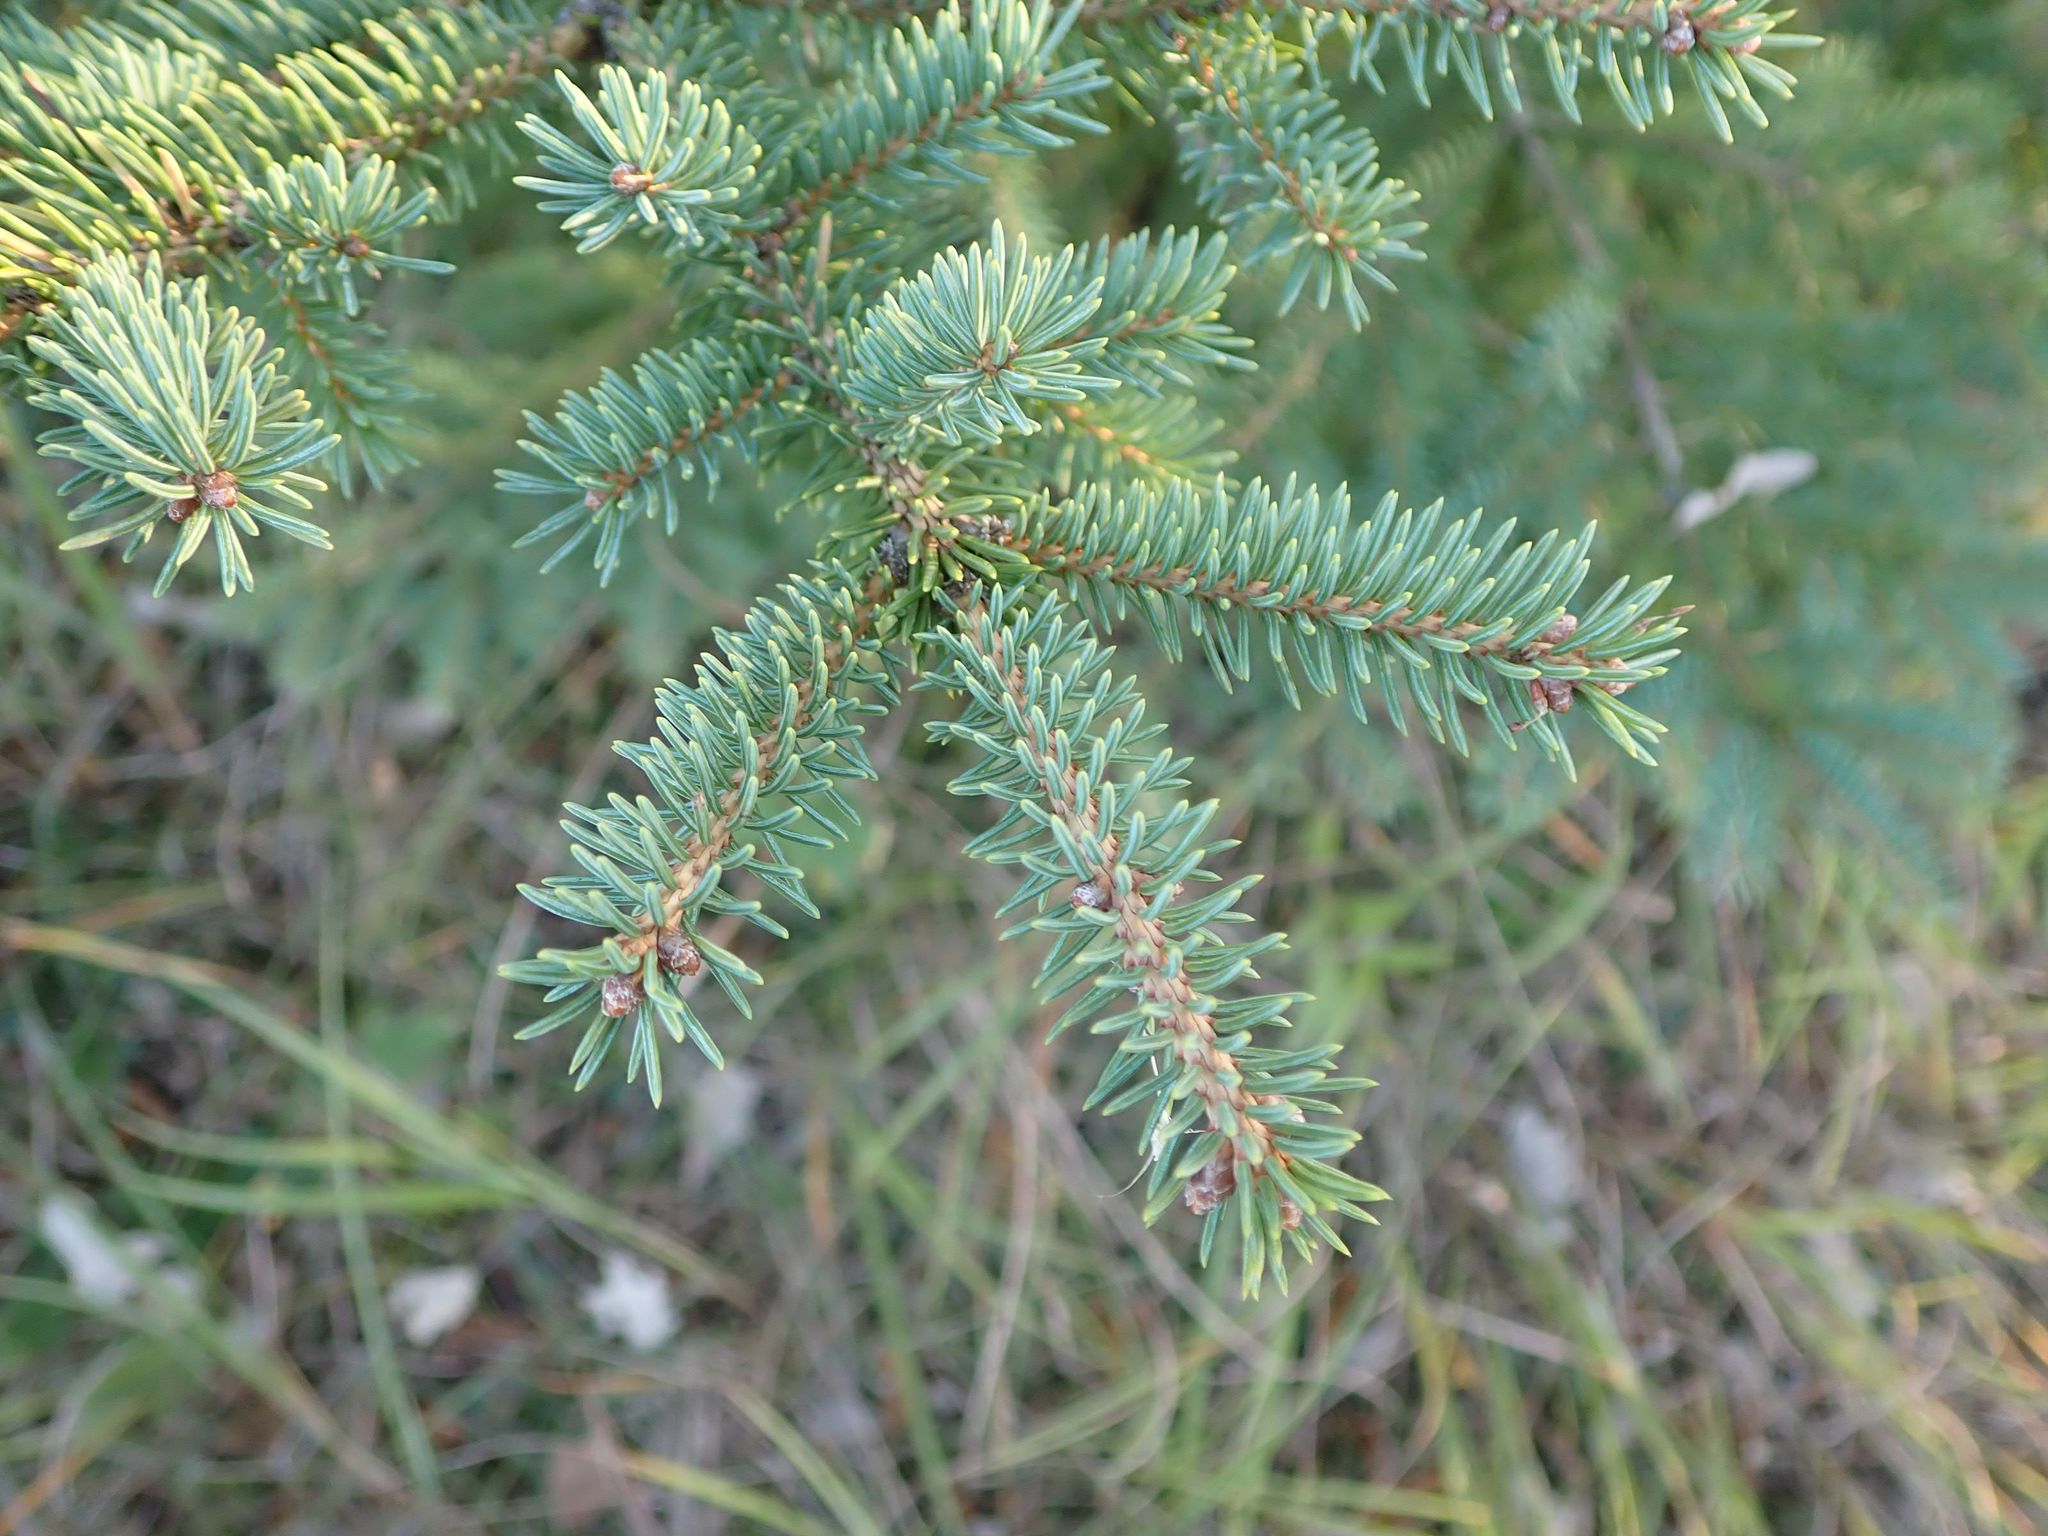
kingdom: Plantae
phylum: Tracheophyta
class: Pinopsida
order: Pinales
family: Pinaceae
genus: Picea
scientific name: Picea glauca
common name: White spruce
